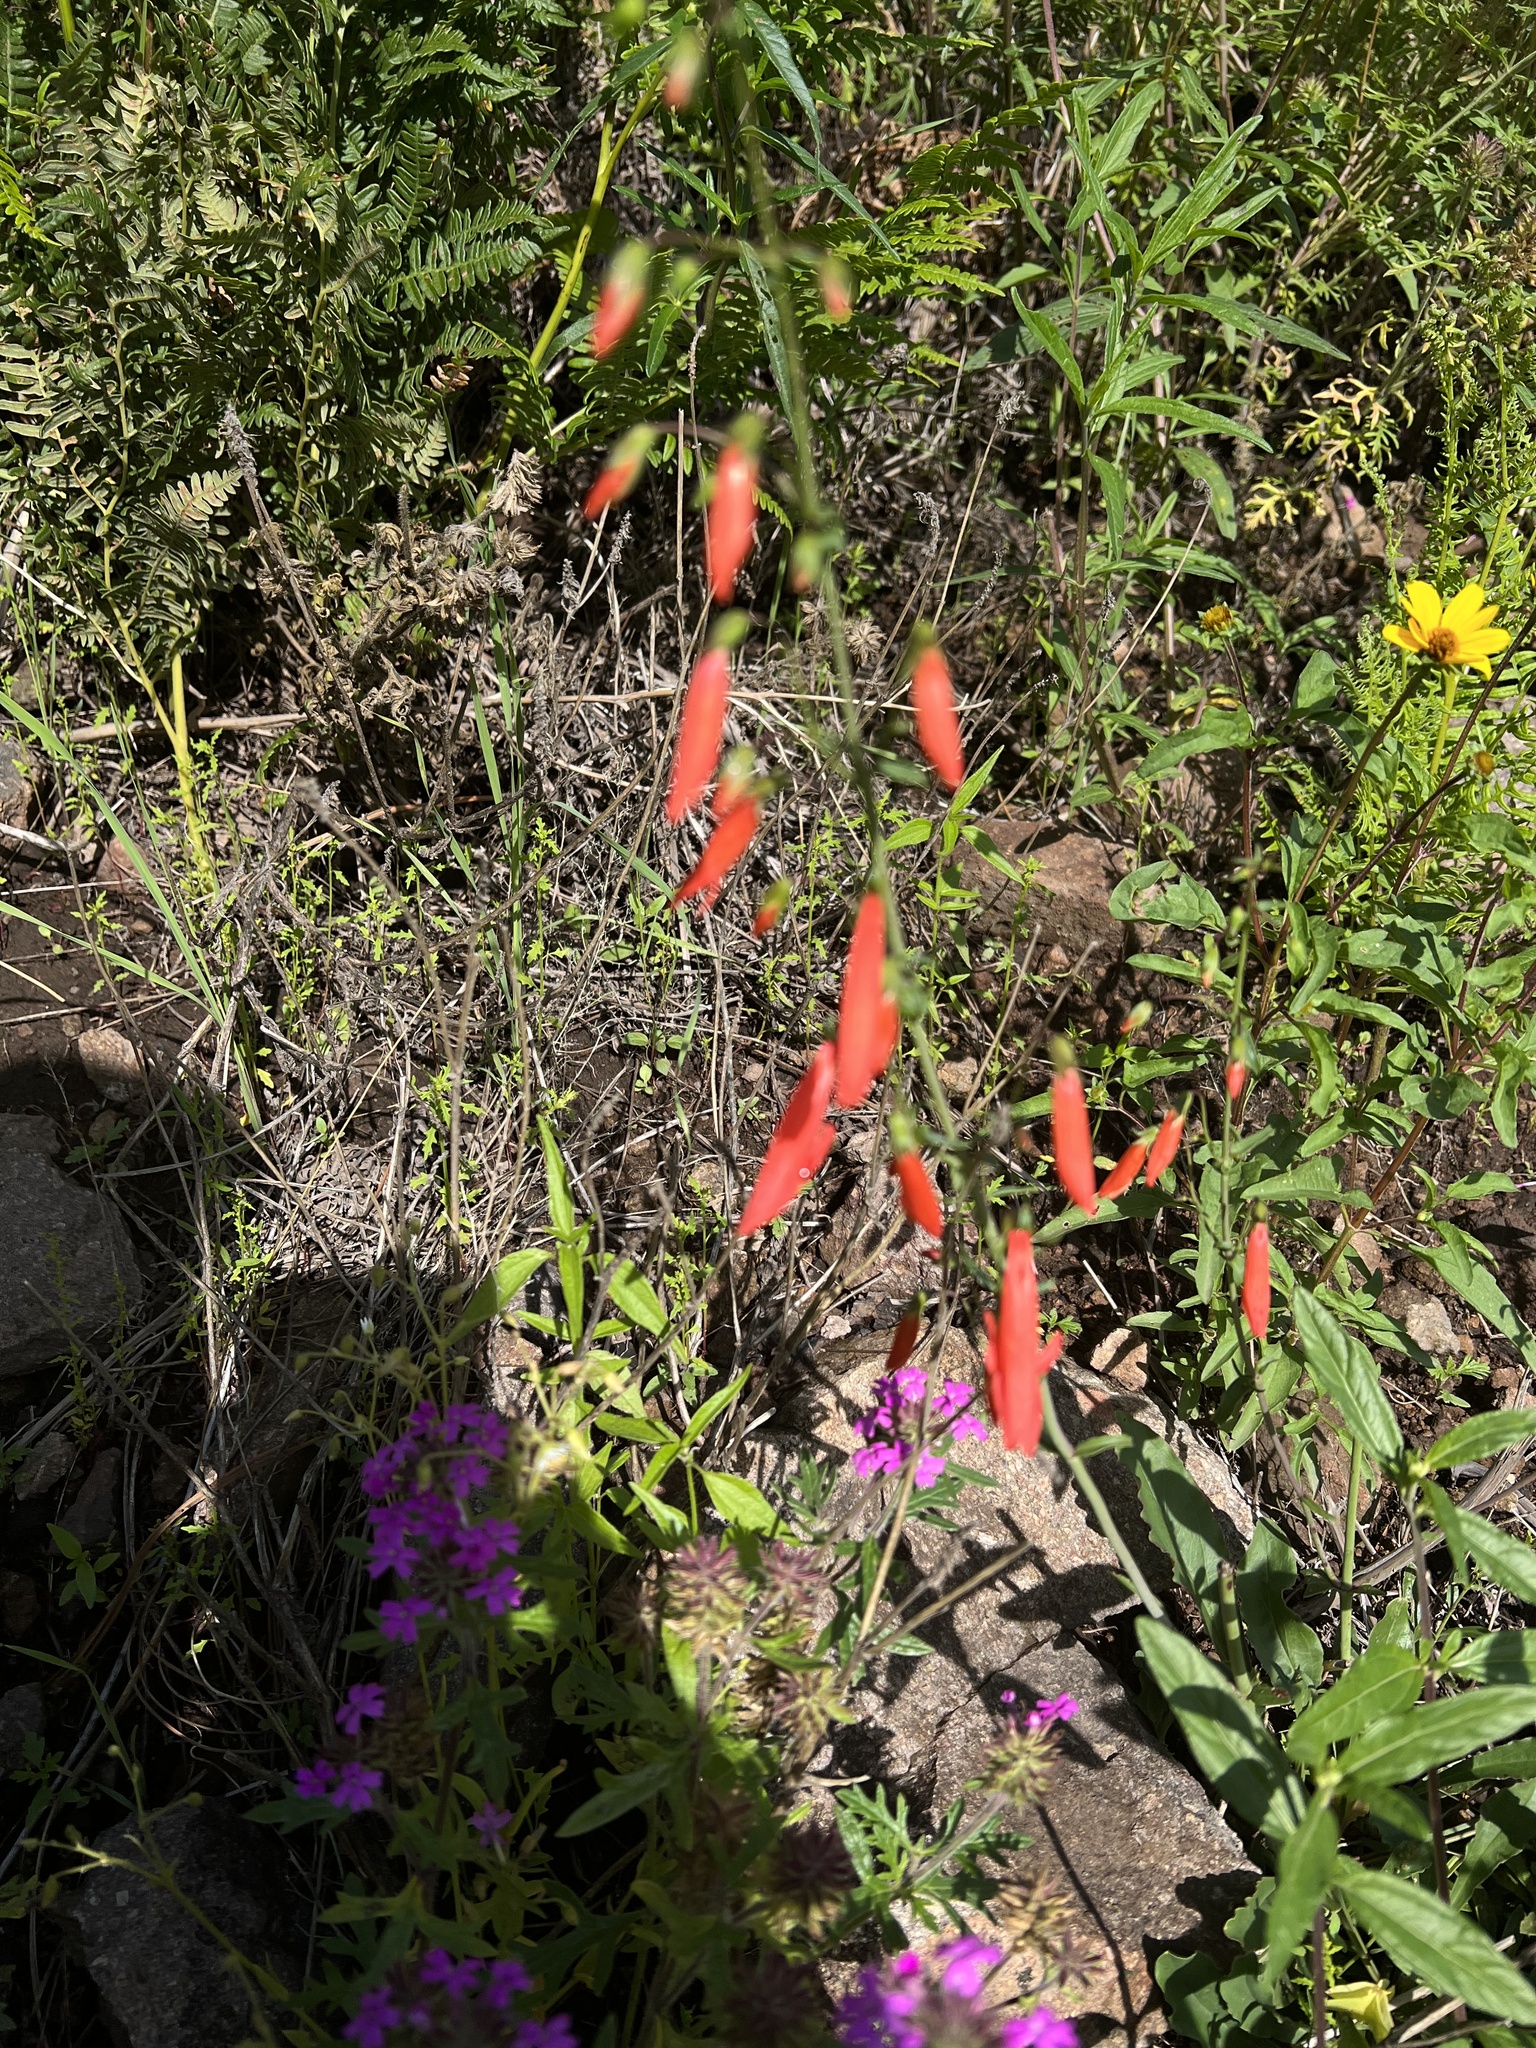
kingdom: Plantae
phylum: Tracheophyta
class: Magnoliopsida
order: Lamiales
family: Plantaginaceae
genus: Penstemon
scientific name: Penstemon barbatus
